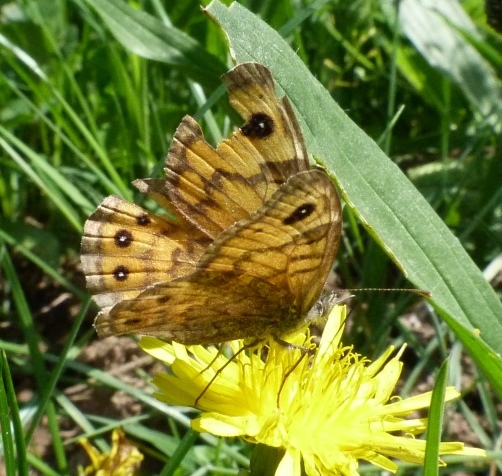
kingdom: Animalia
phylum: Arthropoda
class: Insecta
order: Lepidoptera
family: Nymphalidae
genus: Pararge
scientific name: Pararge Lasiommata megera
